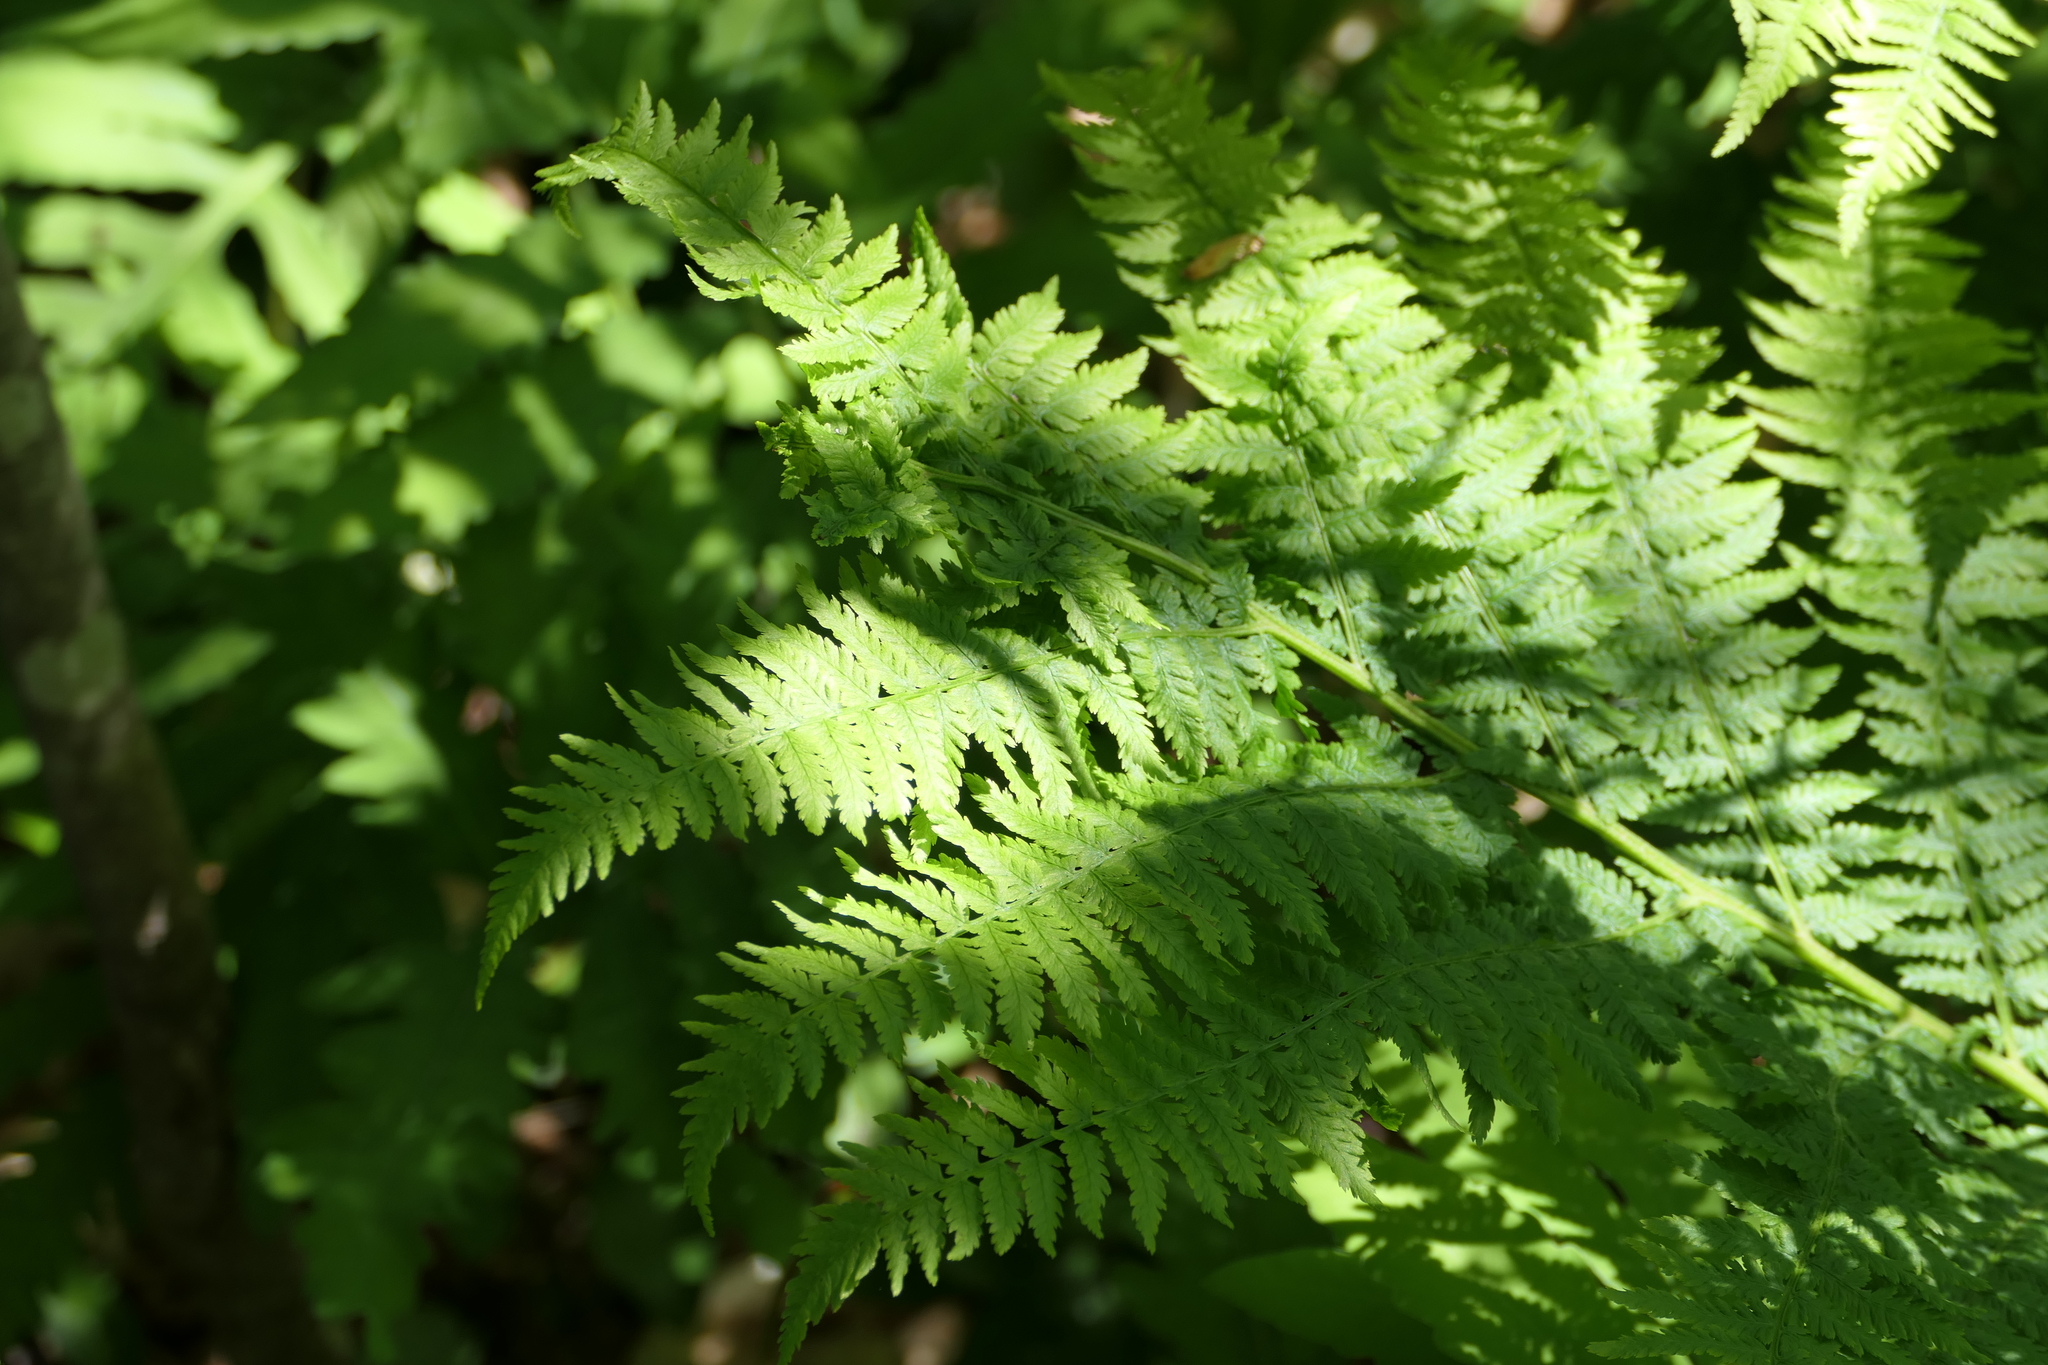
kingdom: Plantae
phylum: Tracheophyta
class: Polypodiopsida
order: Polypodiales
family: Athyriaceae
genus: Athyrium
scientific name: Athyrium angustum
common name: Northern lady fern
